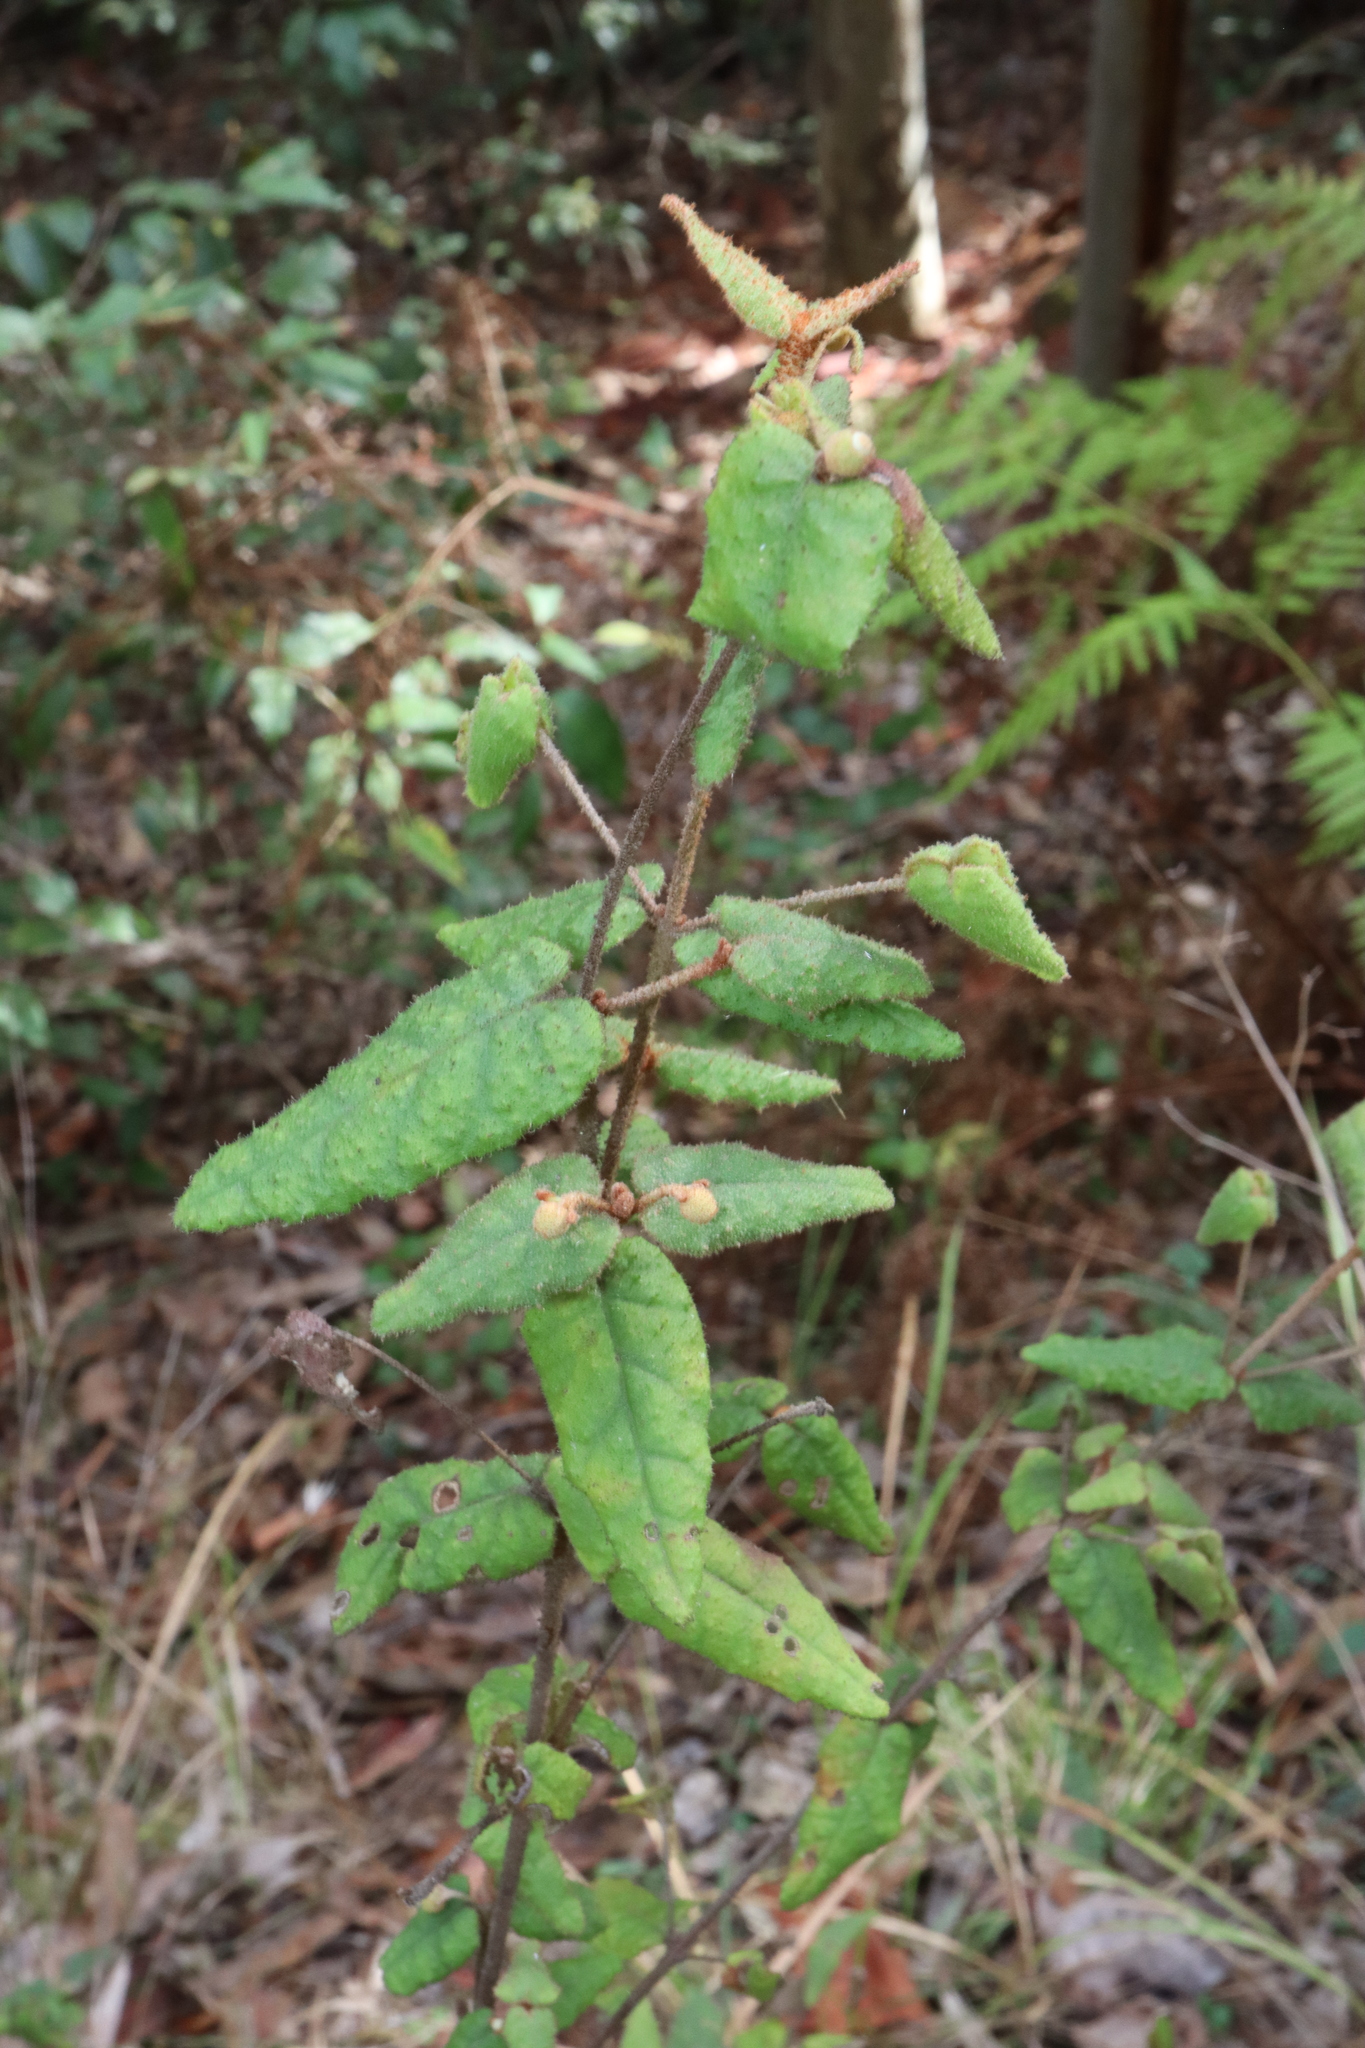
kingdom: Plantae
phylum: Tracheophyta
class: Magnoliopsida
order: Sapindales
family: Rutaceae
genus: Correa
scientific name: Correa reflexa
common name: Common correa
